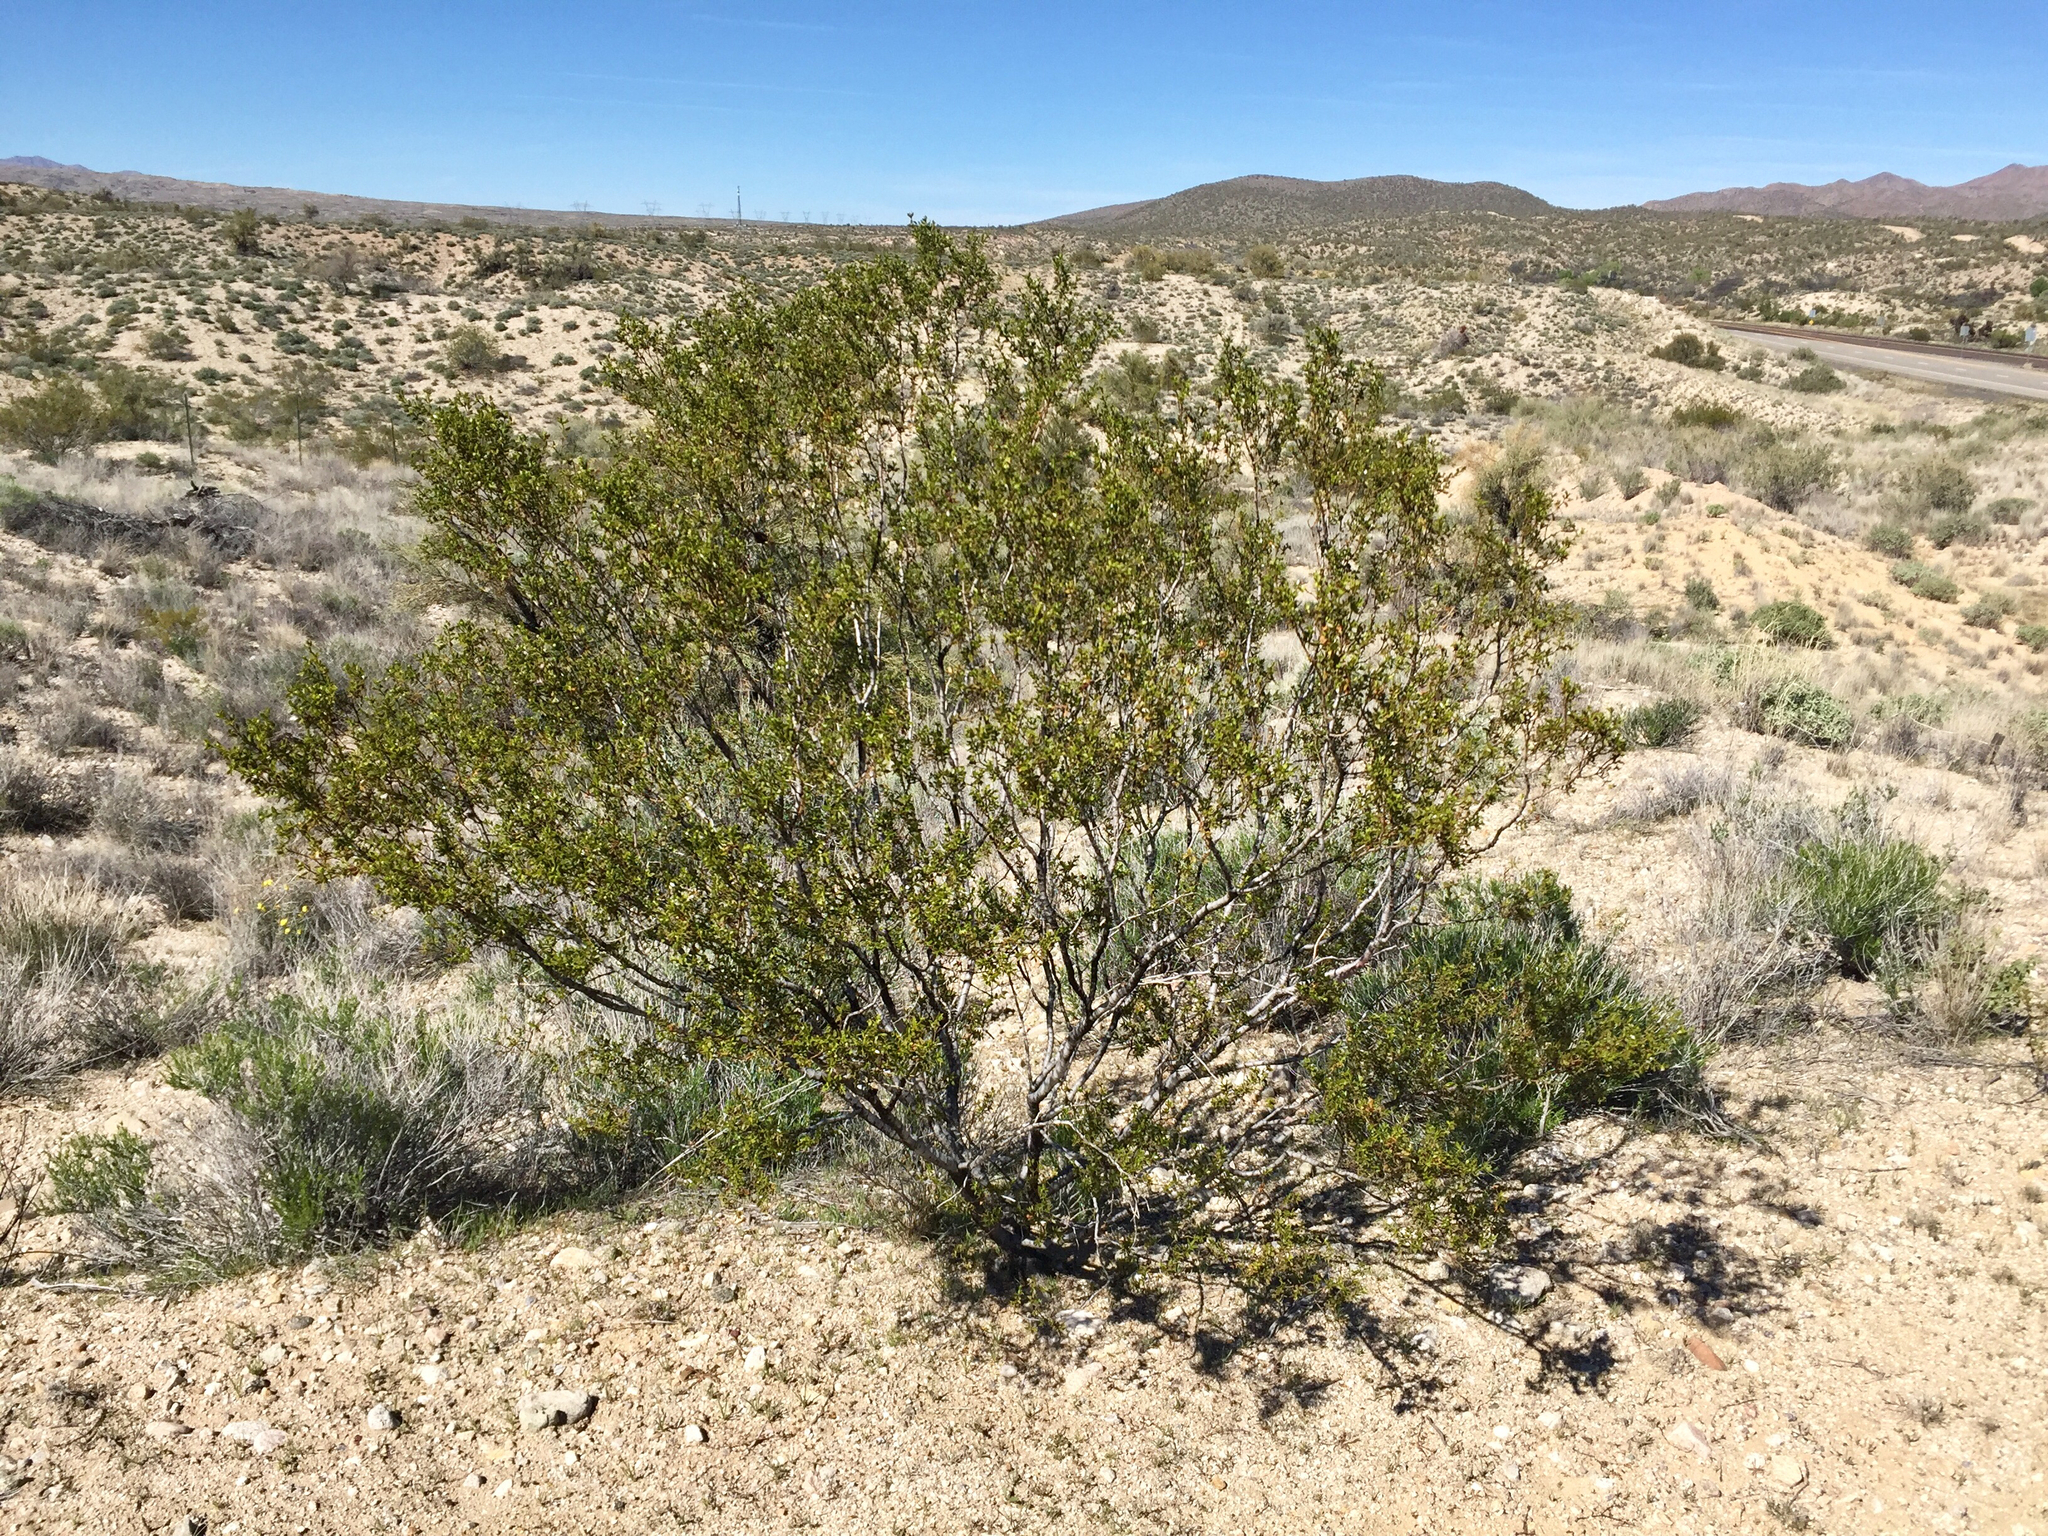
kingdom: Plantae
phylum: Tracheophyta
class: Magnoliopsida
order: Zygophyllales
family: Zygophyllaceae
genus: Larrea
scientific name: Larrea tridentata
